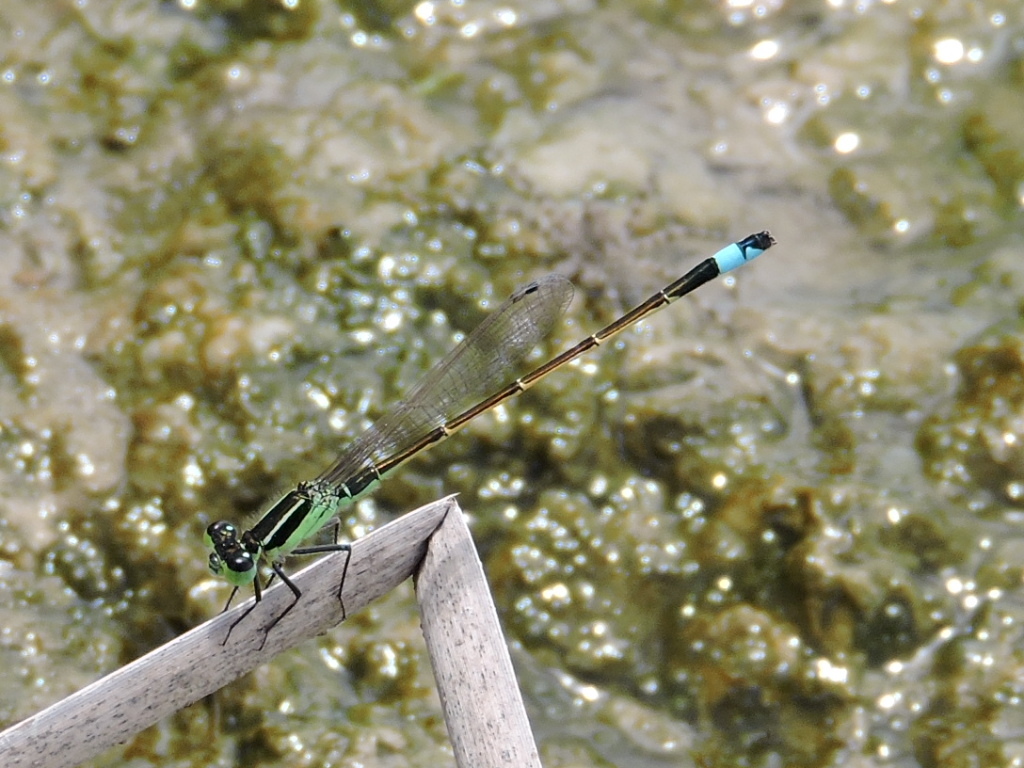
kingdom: Animalia
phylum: Arthropoda
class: Insecta
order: Odonata
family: Coenagrionidae
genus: Ischnura
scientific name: Ischnura ramburii
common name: Rambur's forktail
